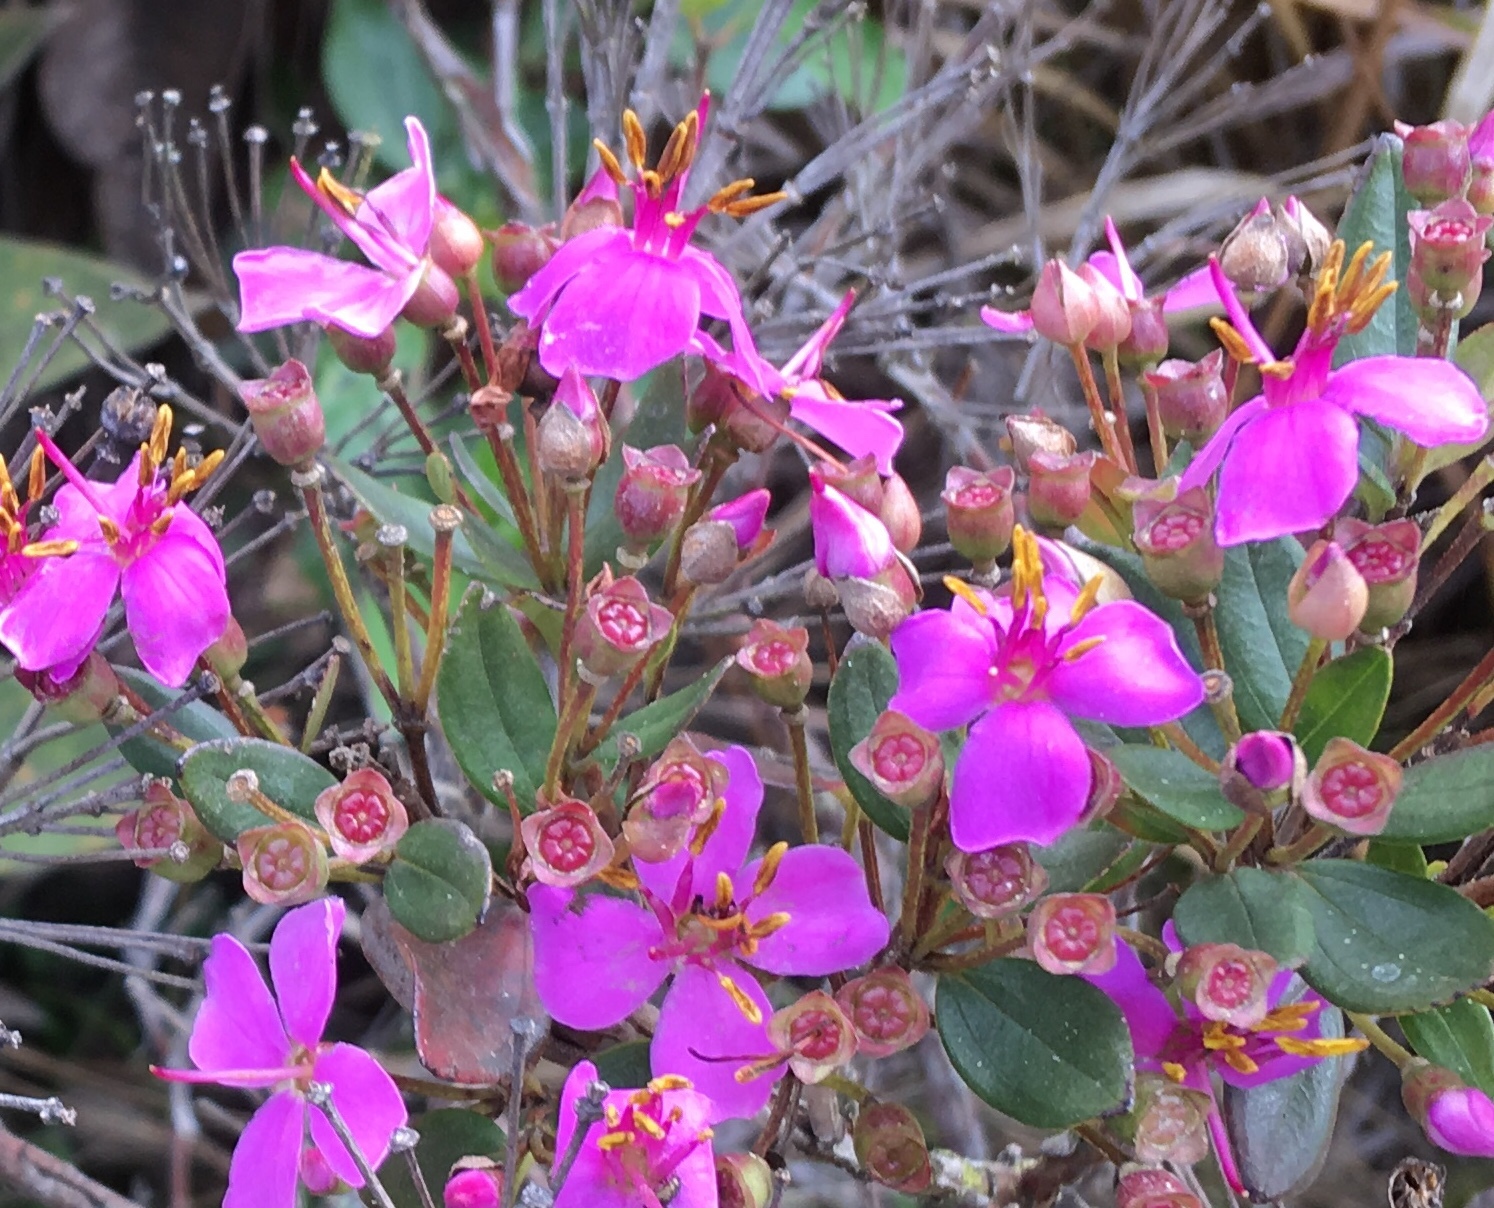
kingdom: Plantae
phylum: Tracheophyta
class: Magnoliopsida
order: Myrtales
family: Melastomataceae
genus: Bucquetia
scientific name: Bucquetia glutinosa
